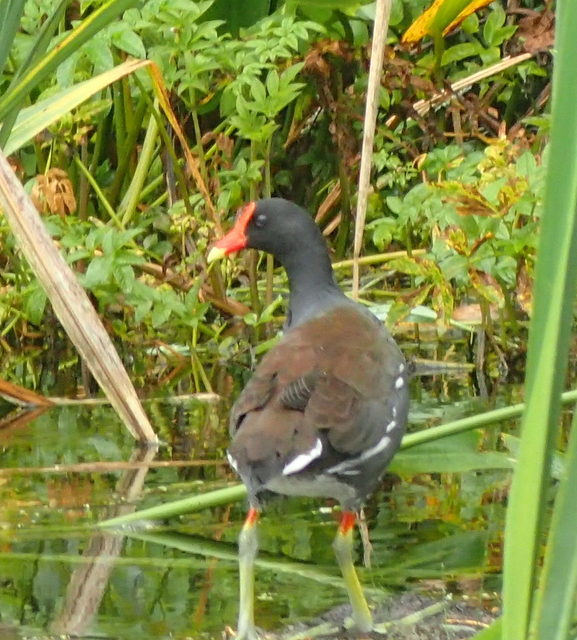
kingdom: Animalia
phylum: Chordata
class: Aves
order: Gruiformes
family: Rallidae
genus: Gallinula
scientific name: Gallinula chloropus
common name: Common moorhen
